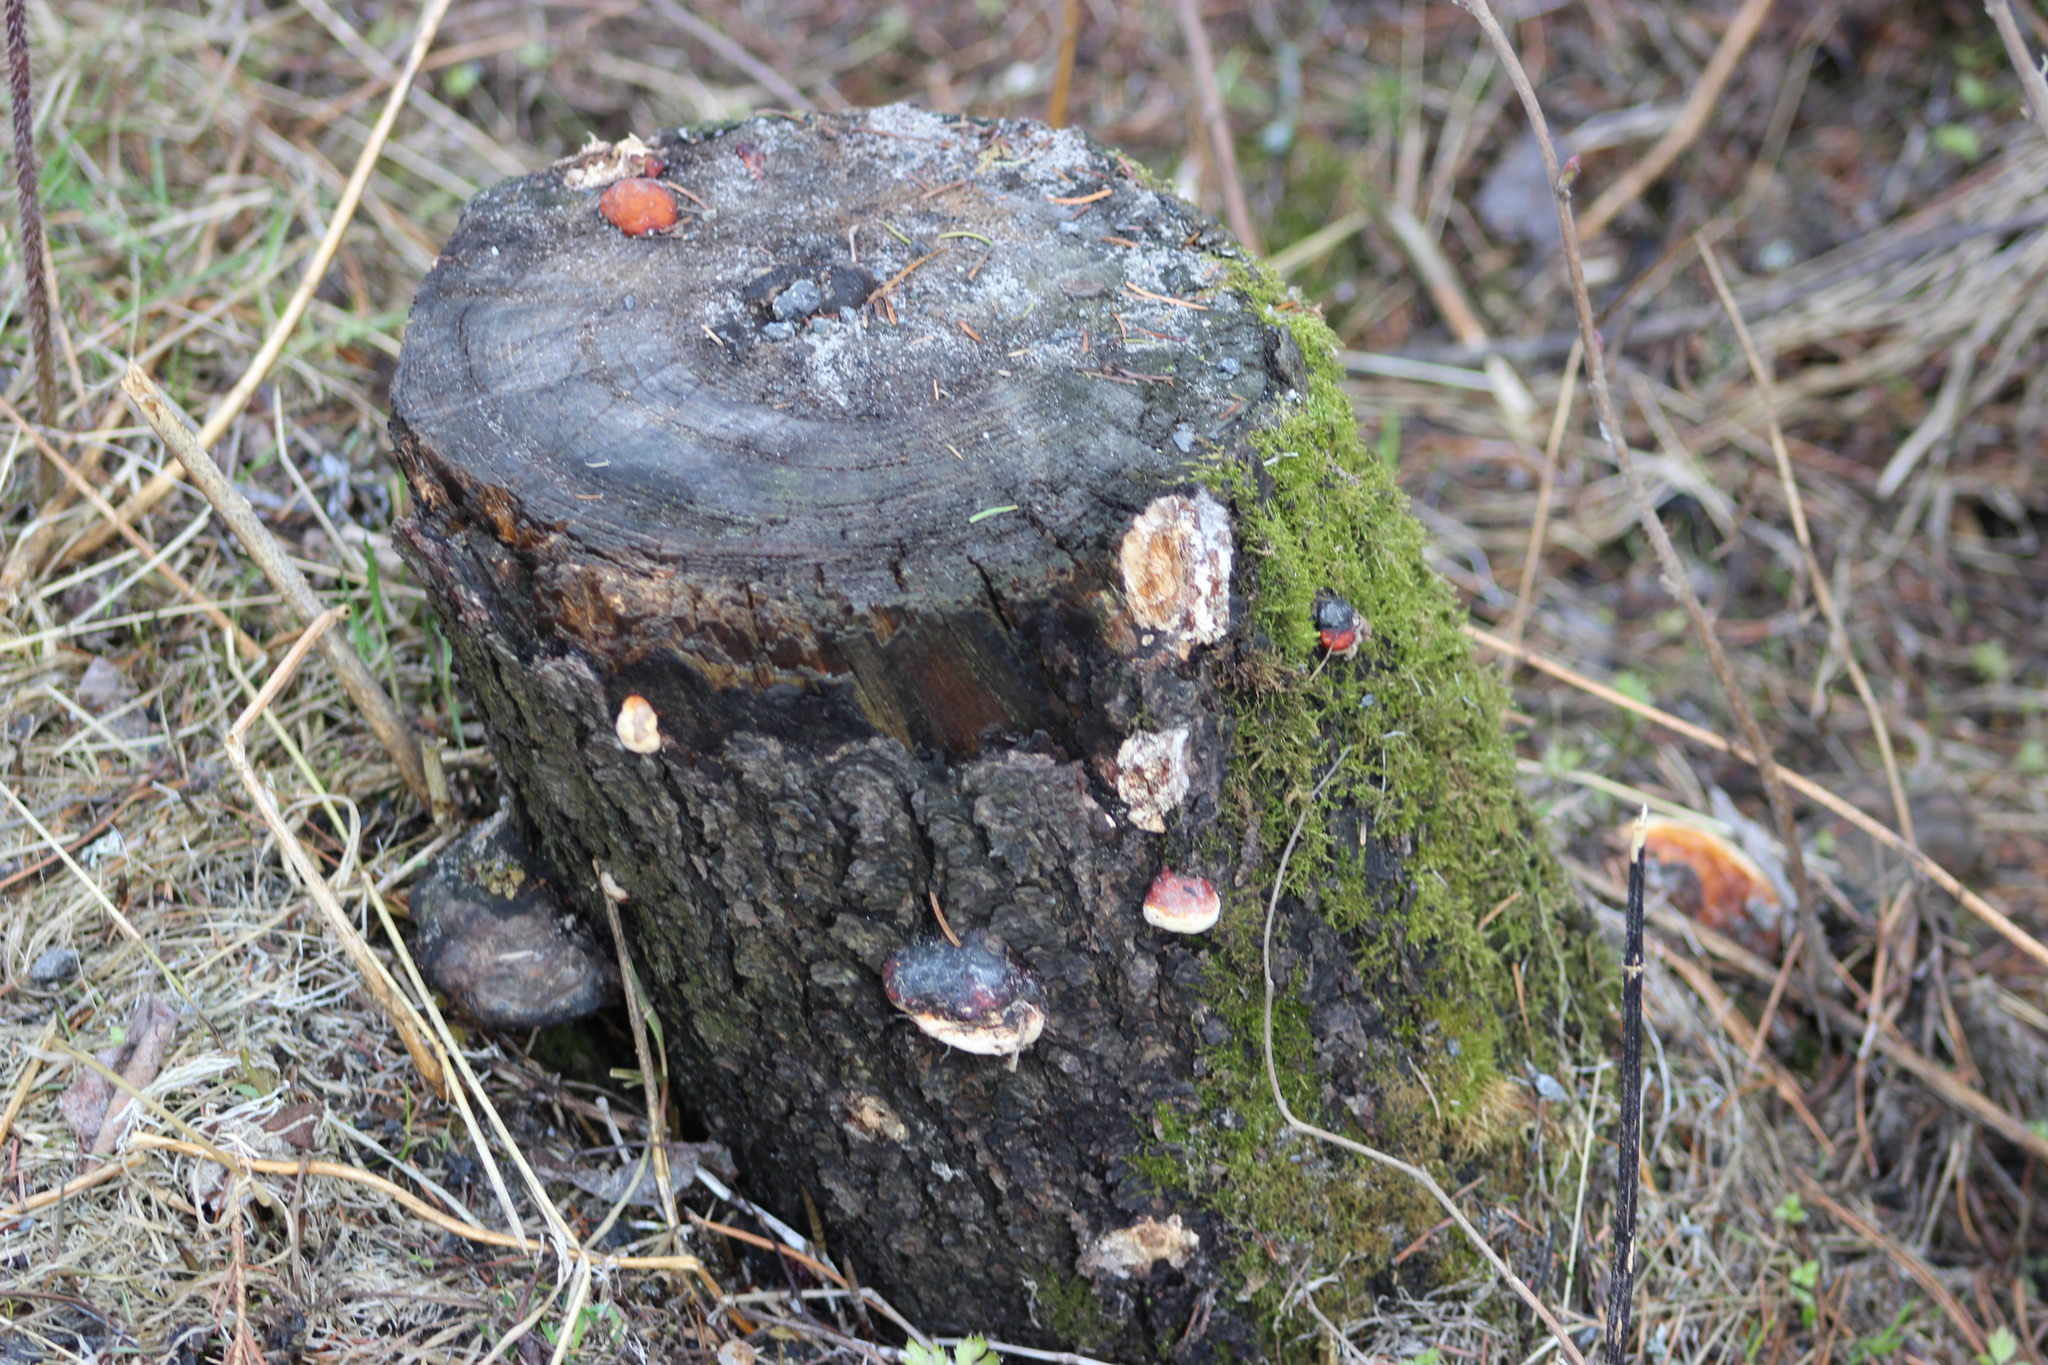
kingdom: Fungi
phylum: Basidiomycota
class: Agaricomycetes
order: Polyporales
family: Fomitopsidaceae
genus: Fomitopsis
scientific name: Fomitopsis pinicola
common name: Red-belted bracket
